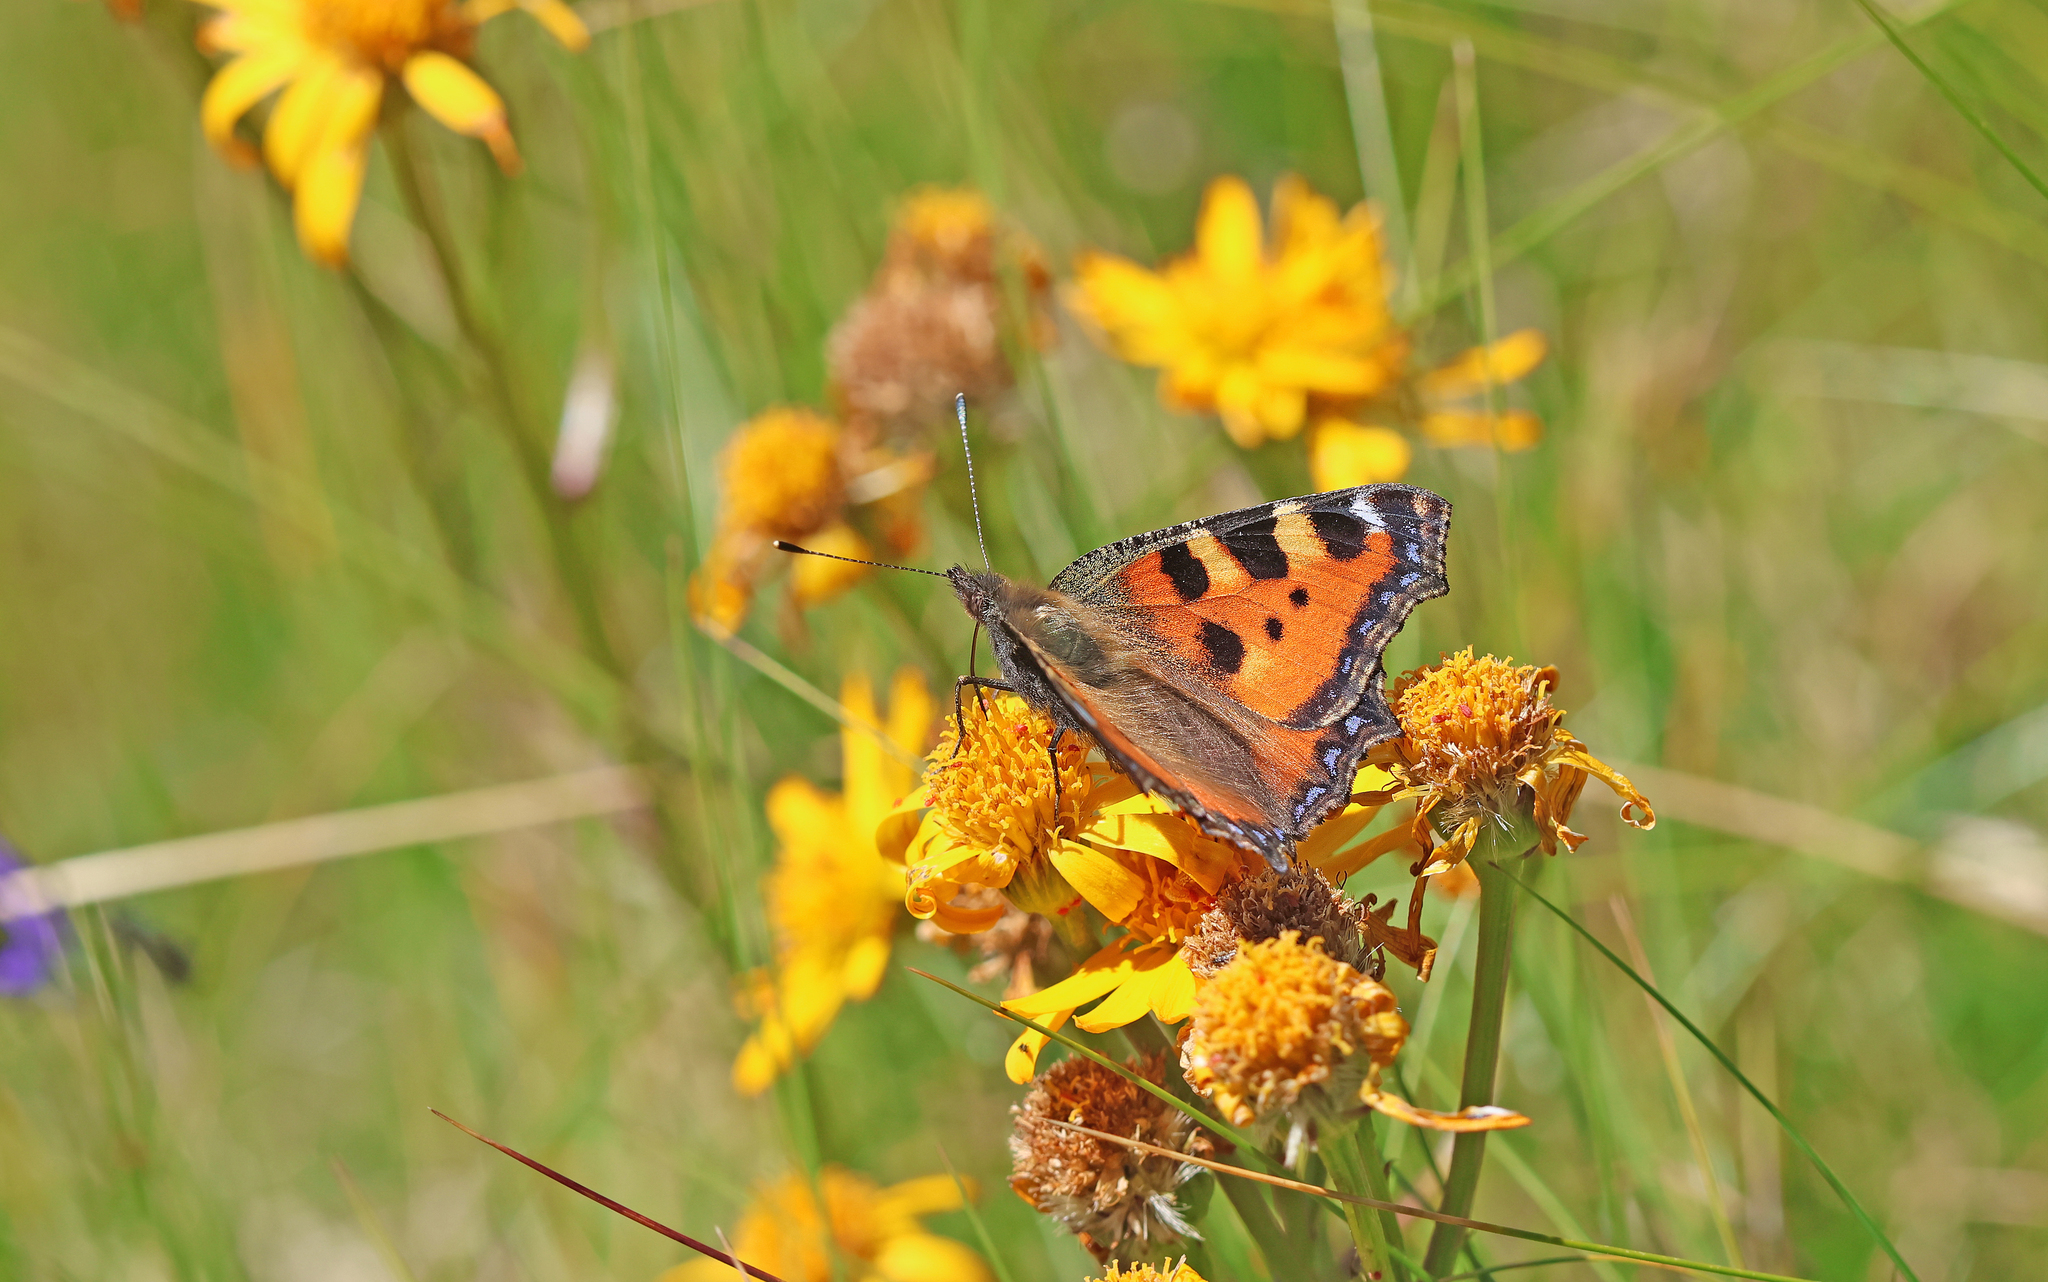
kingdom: Animalia
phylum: Arthropoda
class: Insecta
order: Lepidoptera
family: Nymphalidae
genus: Aglais
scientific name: Aglais urticae
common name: Small tortoiseshell
